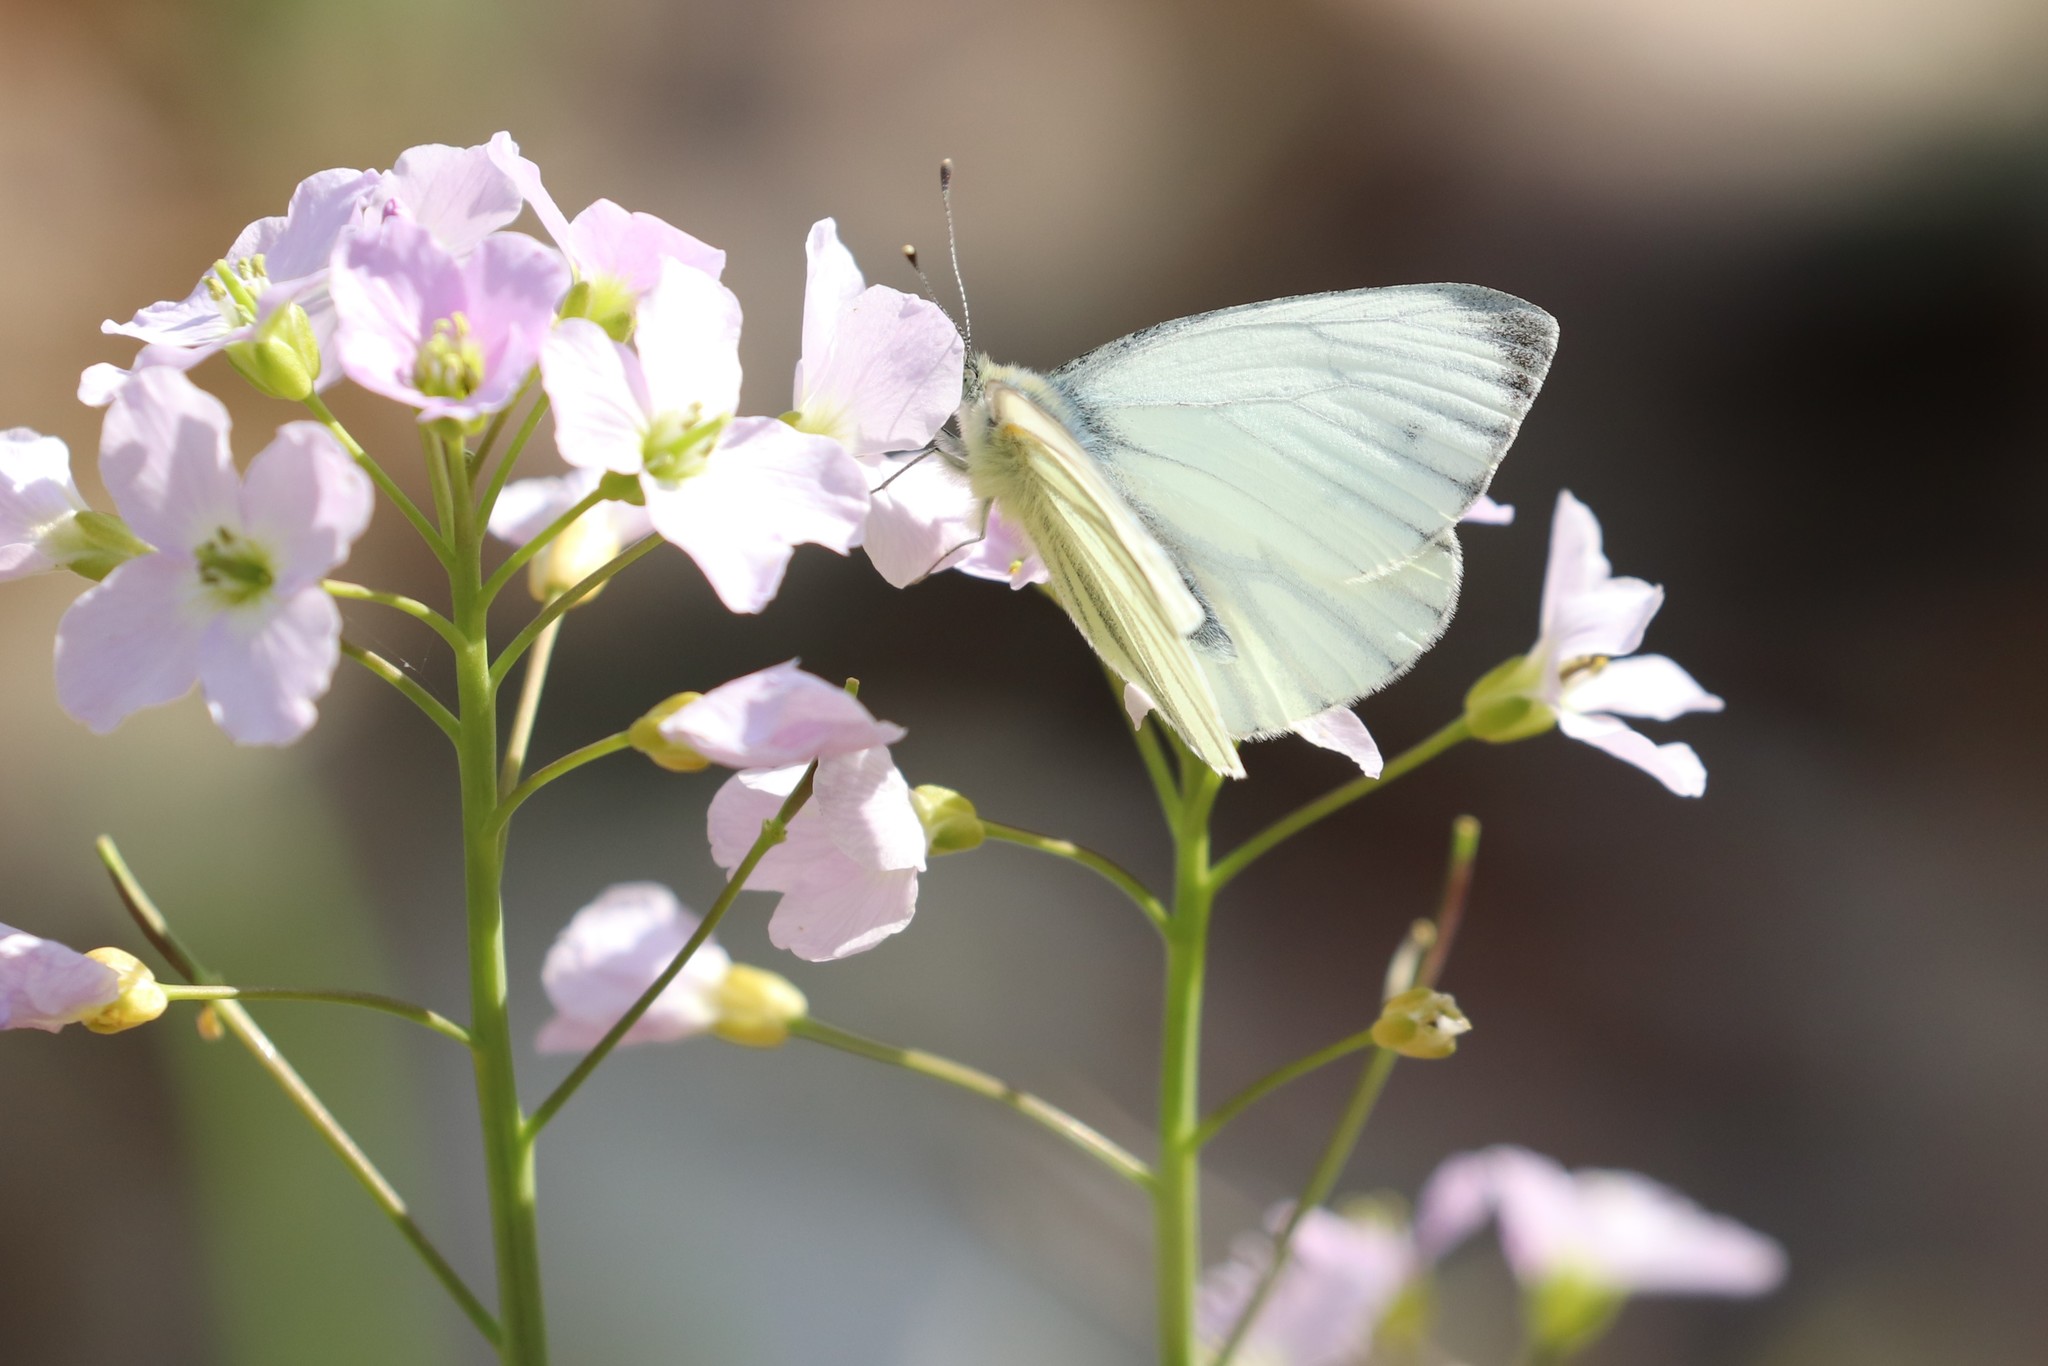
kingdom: Animalia
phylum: Arthropoda
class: Insecta
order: Lepidoptera
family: Pieridae
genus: Pieris
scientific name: Pieris napi
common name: Green-veined white
